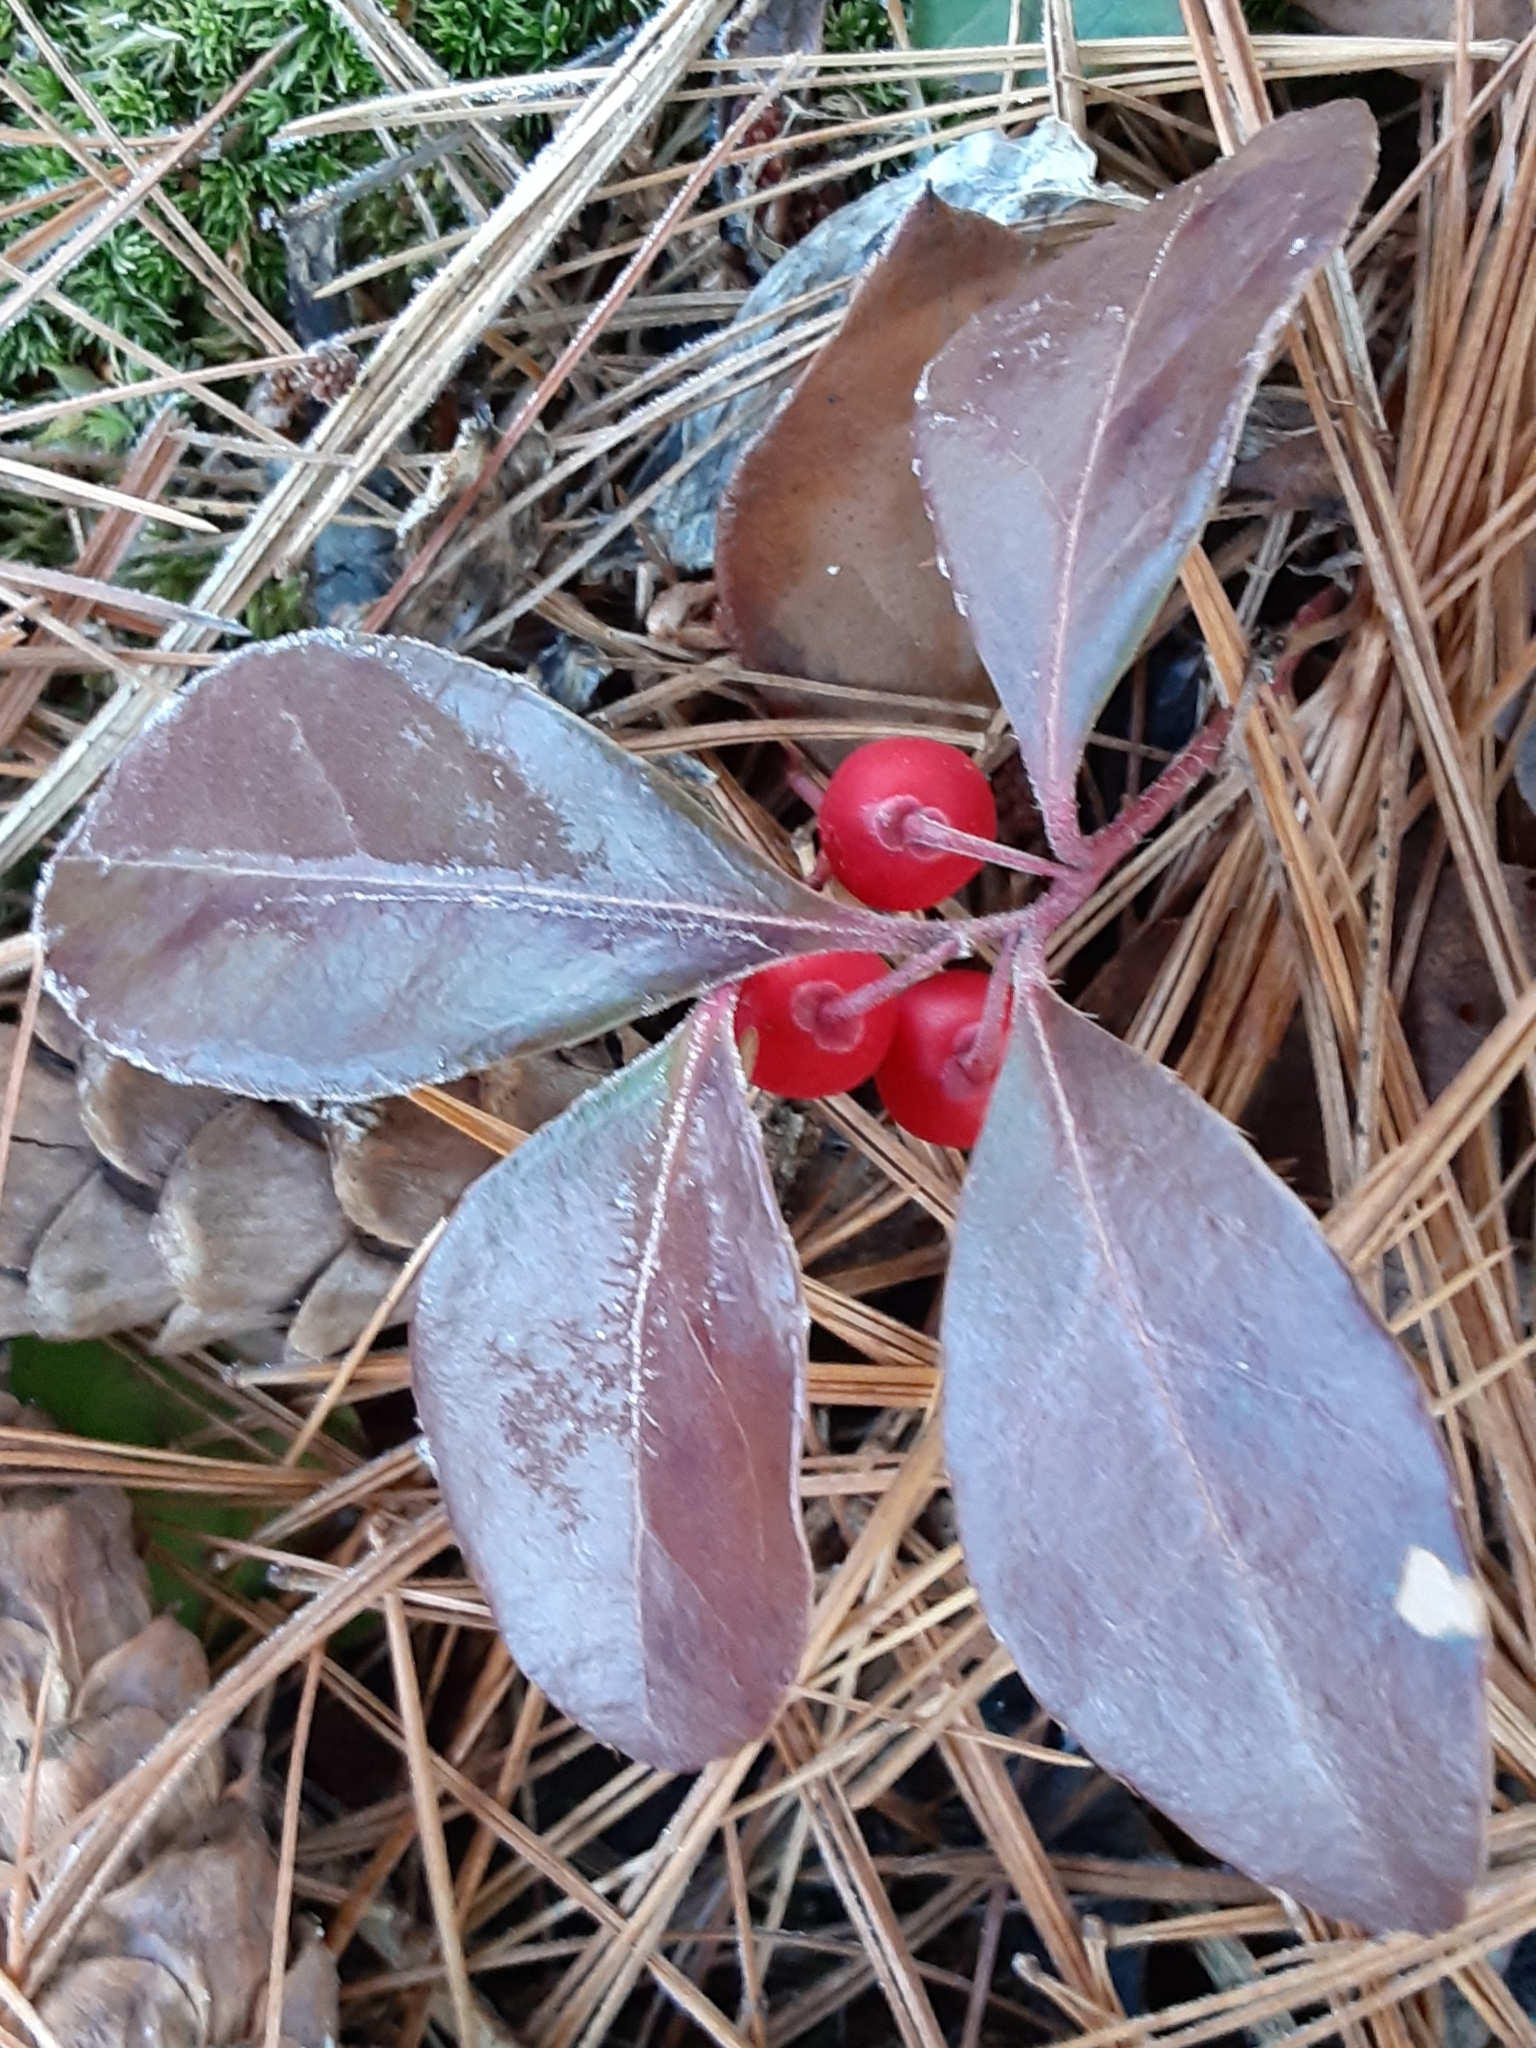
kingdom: Plantae
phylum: Tracheophyta
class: Magnoliopsida
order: Ericales
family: Ericaceae
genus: Gaultheria
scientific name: Gaultheria procumbens
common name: Checkerberry
